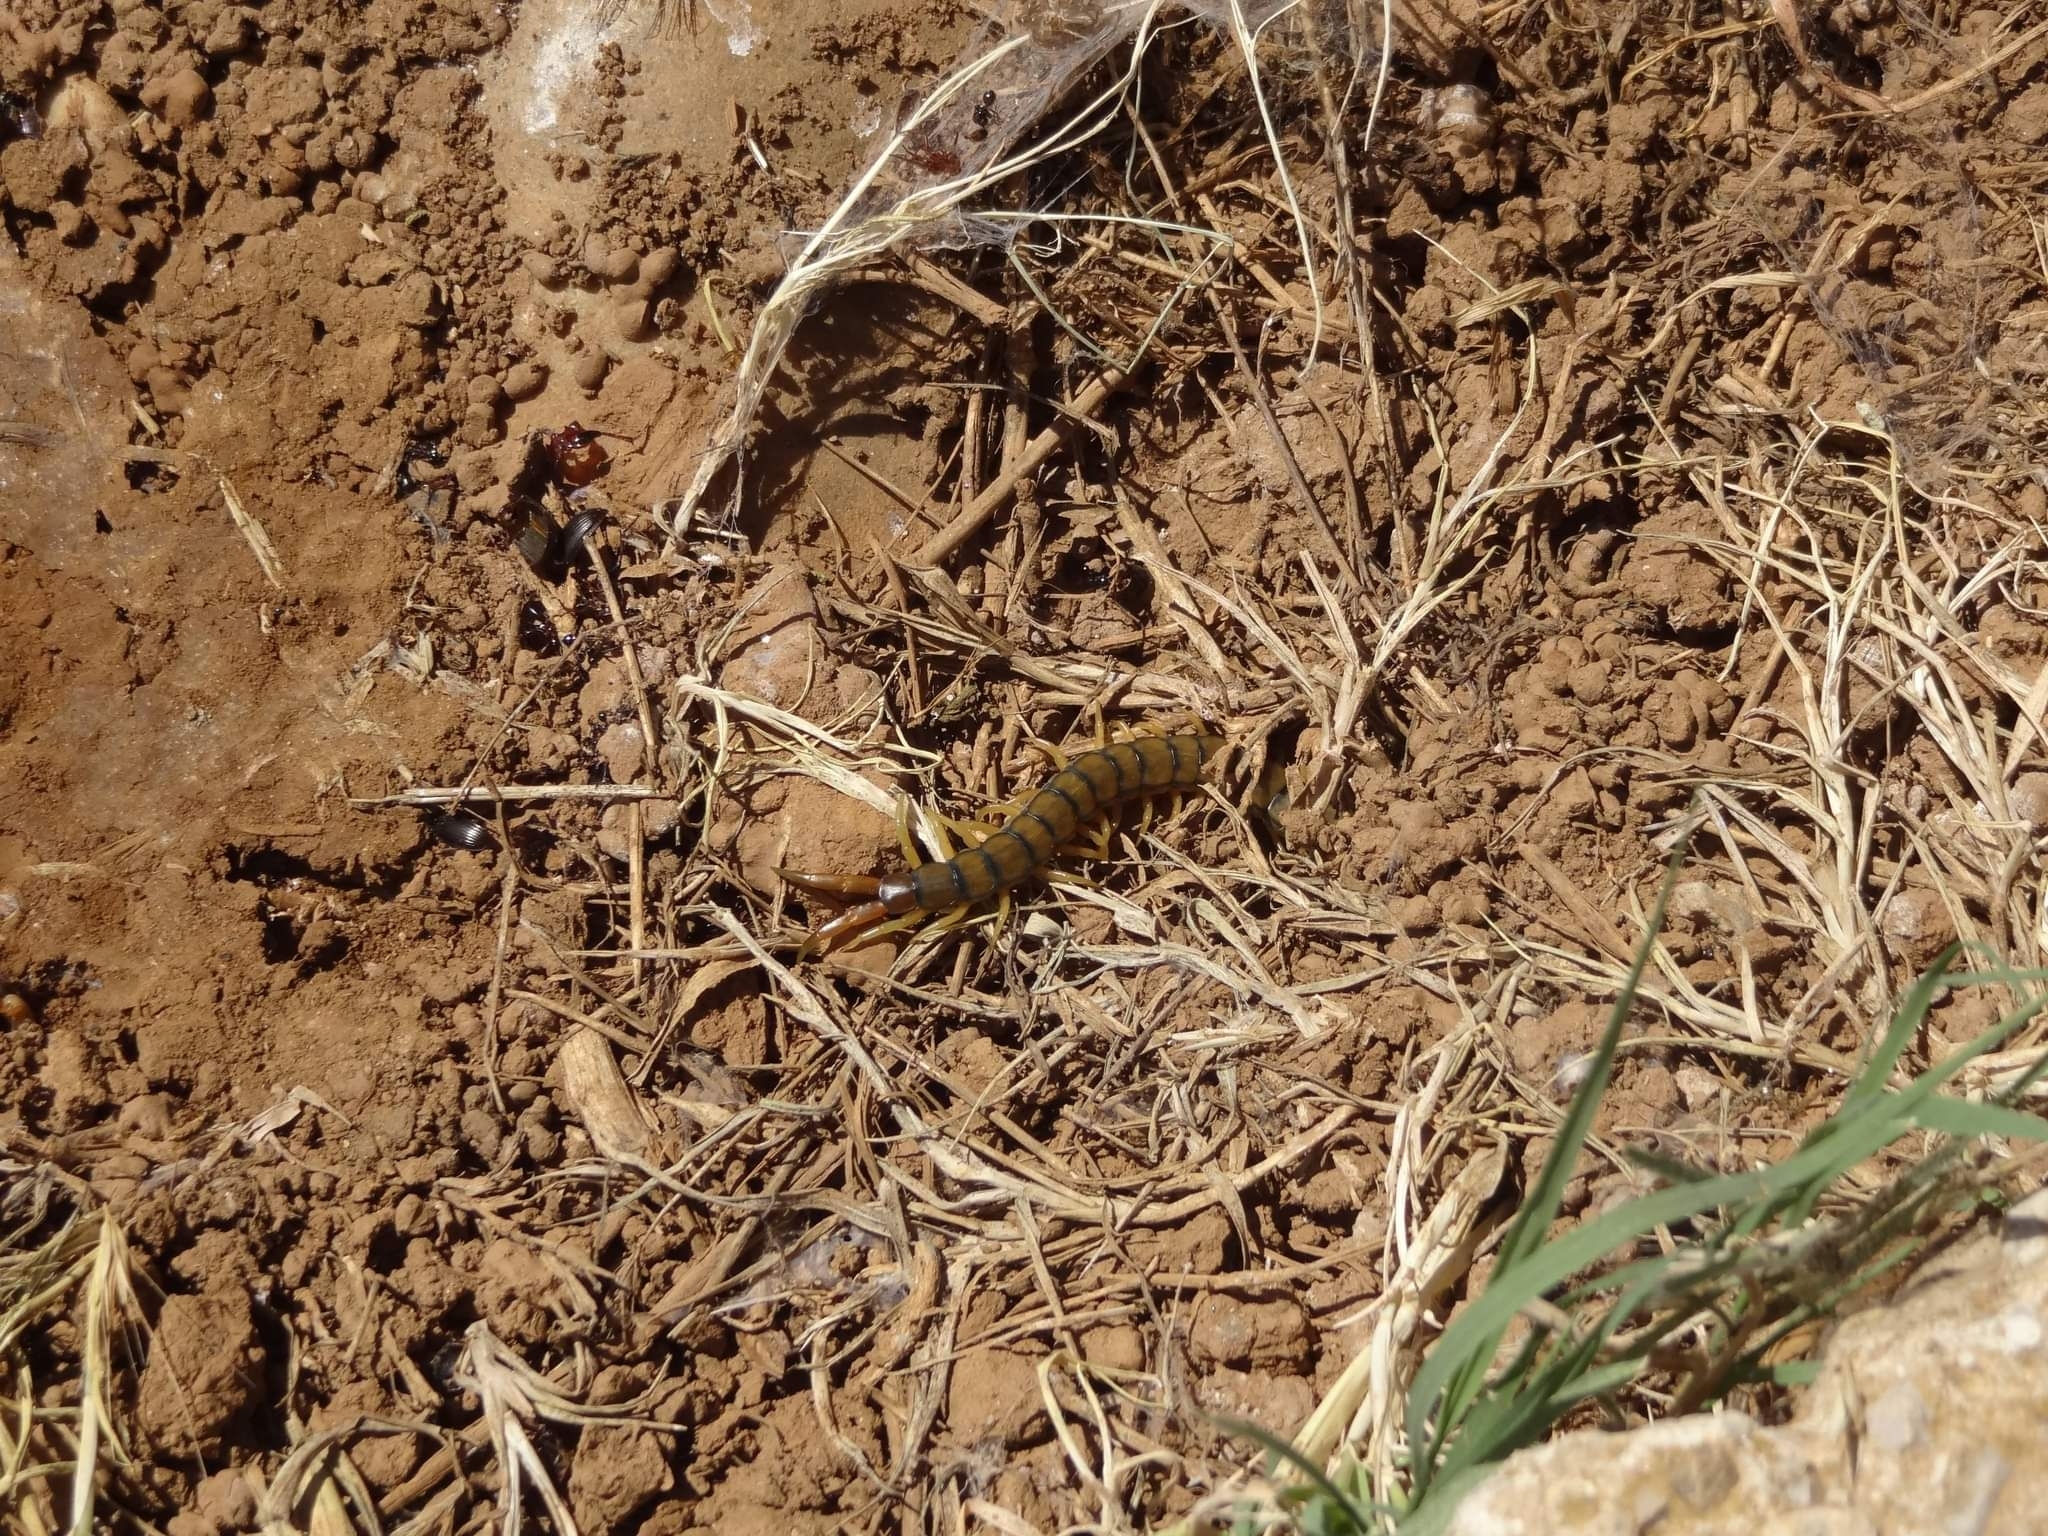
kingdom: Animalia
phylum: Arthropoda
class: Chilopoda
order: Scolopendromorpha
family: Scolopendridae
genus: Scolopendra
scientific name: Scolopendra cingulata
